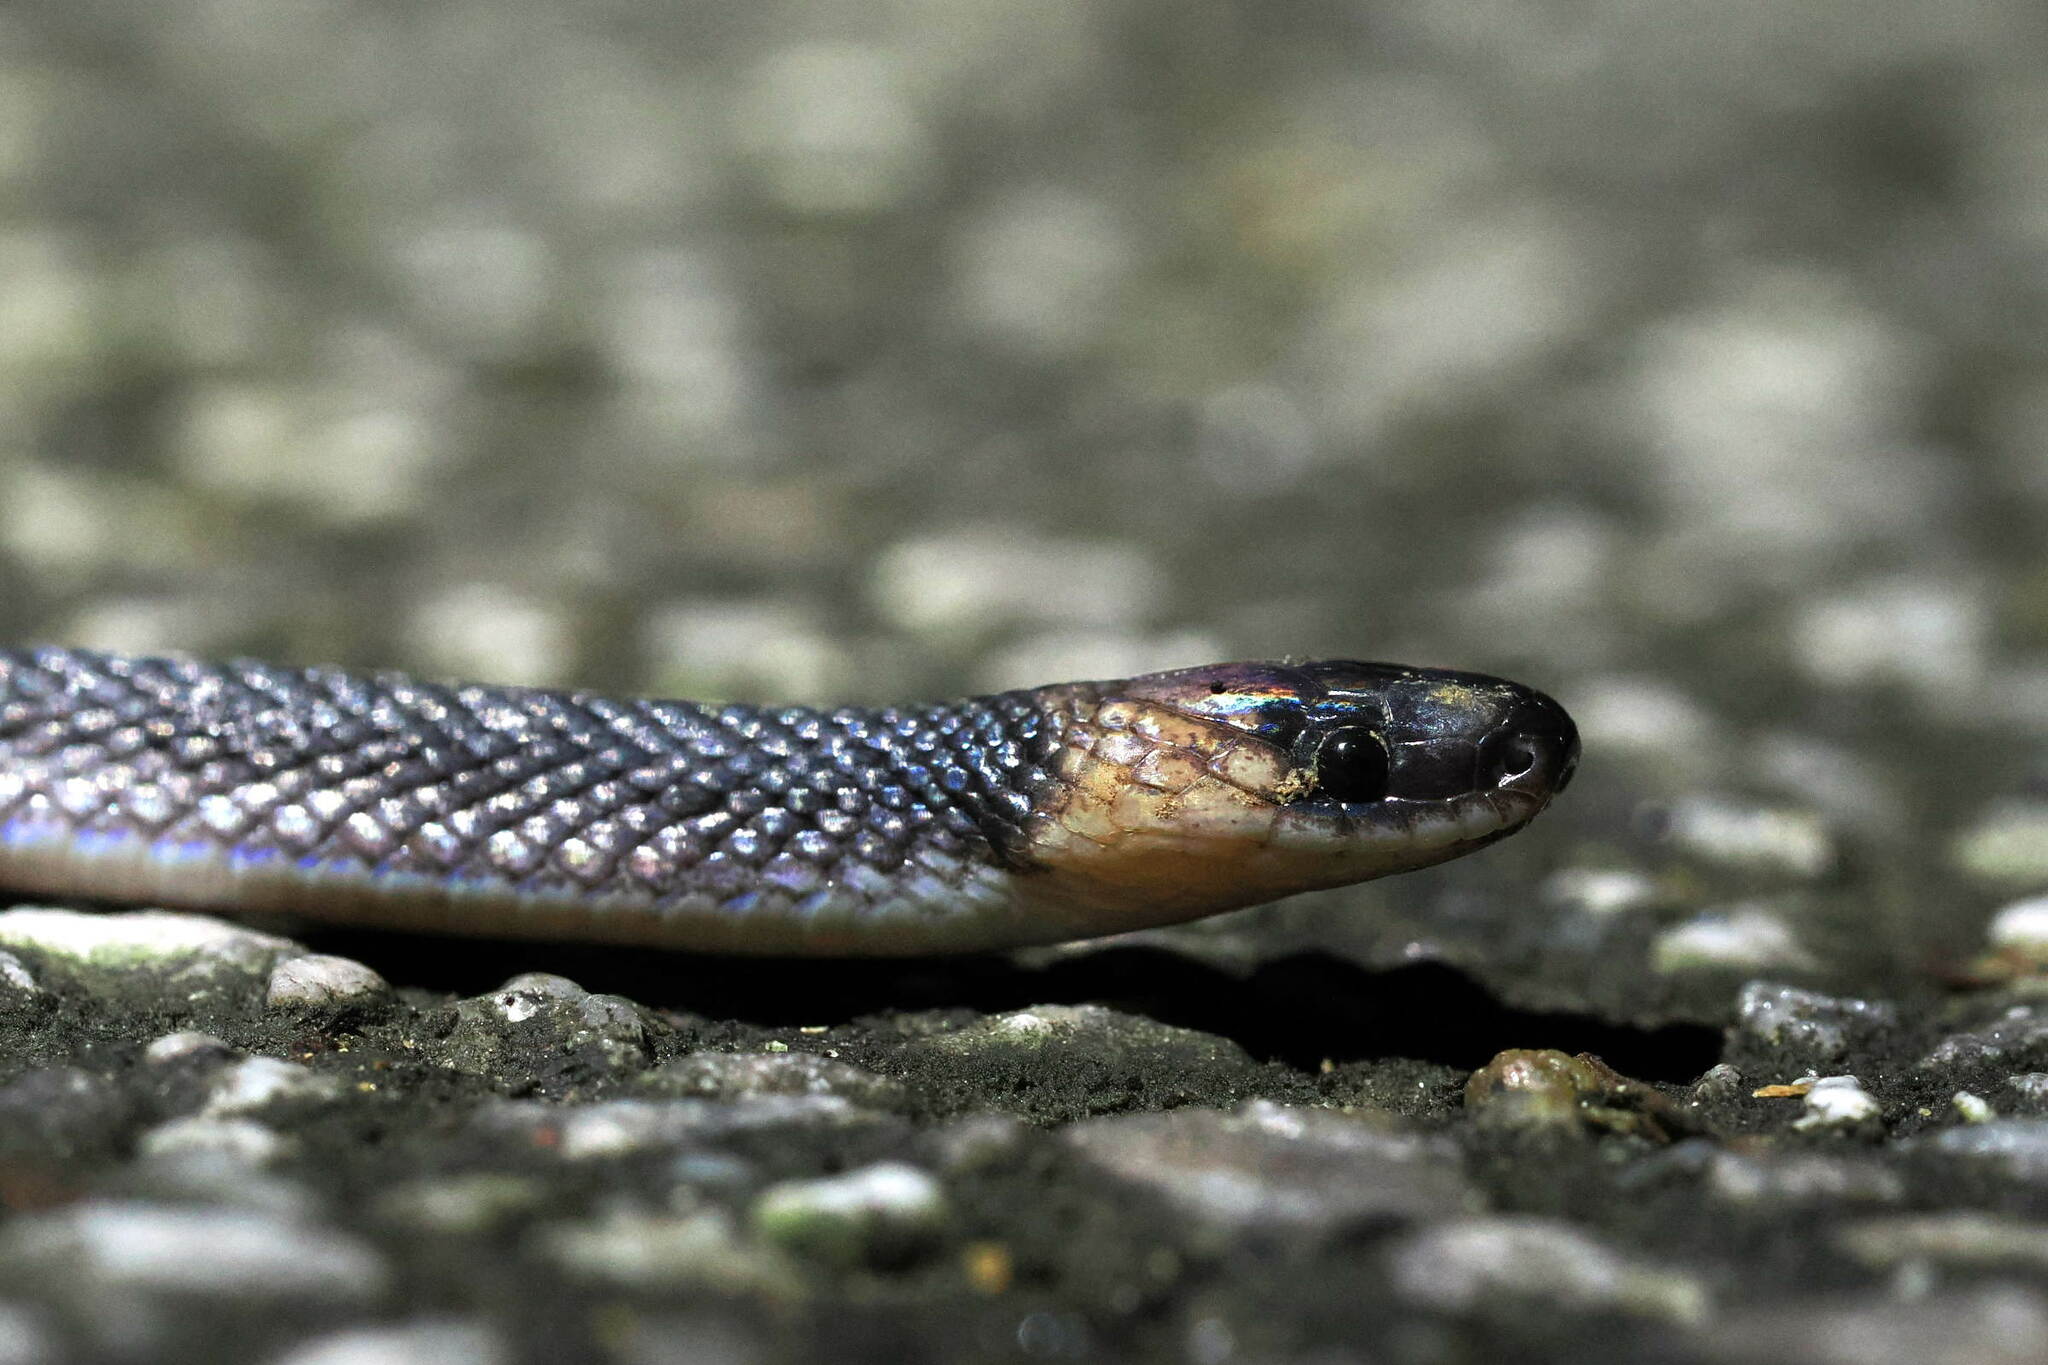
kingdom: Animalia
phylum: Chordata
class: Squamata
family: Colubridae
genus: Ninia
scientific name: Ninia atrata
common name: Hallowell's coffee snake
